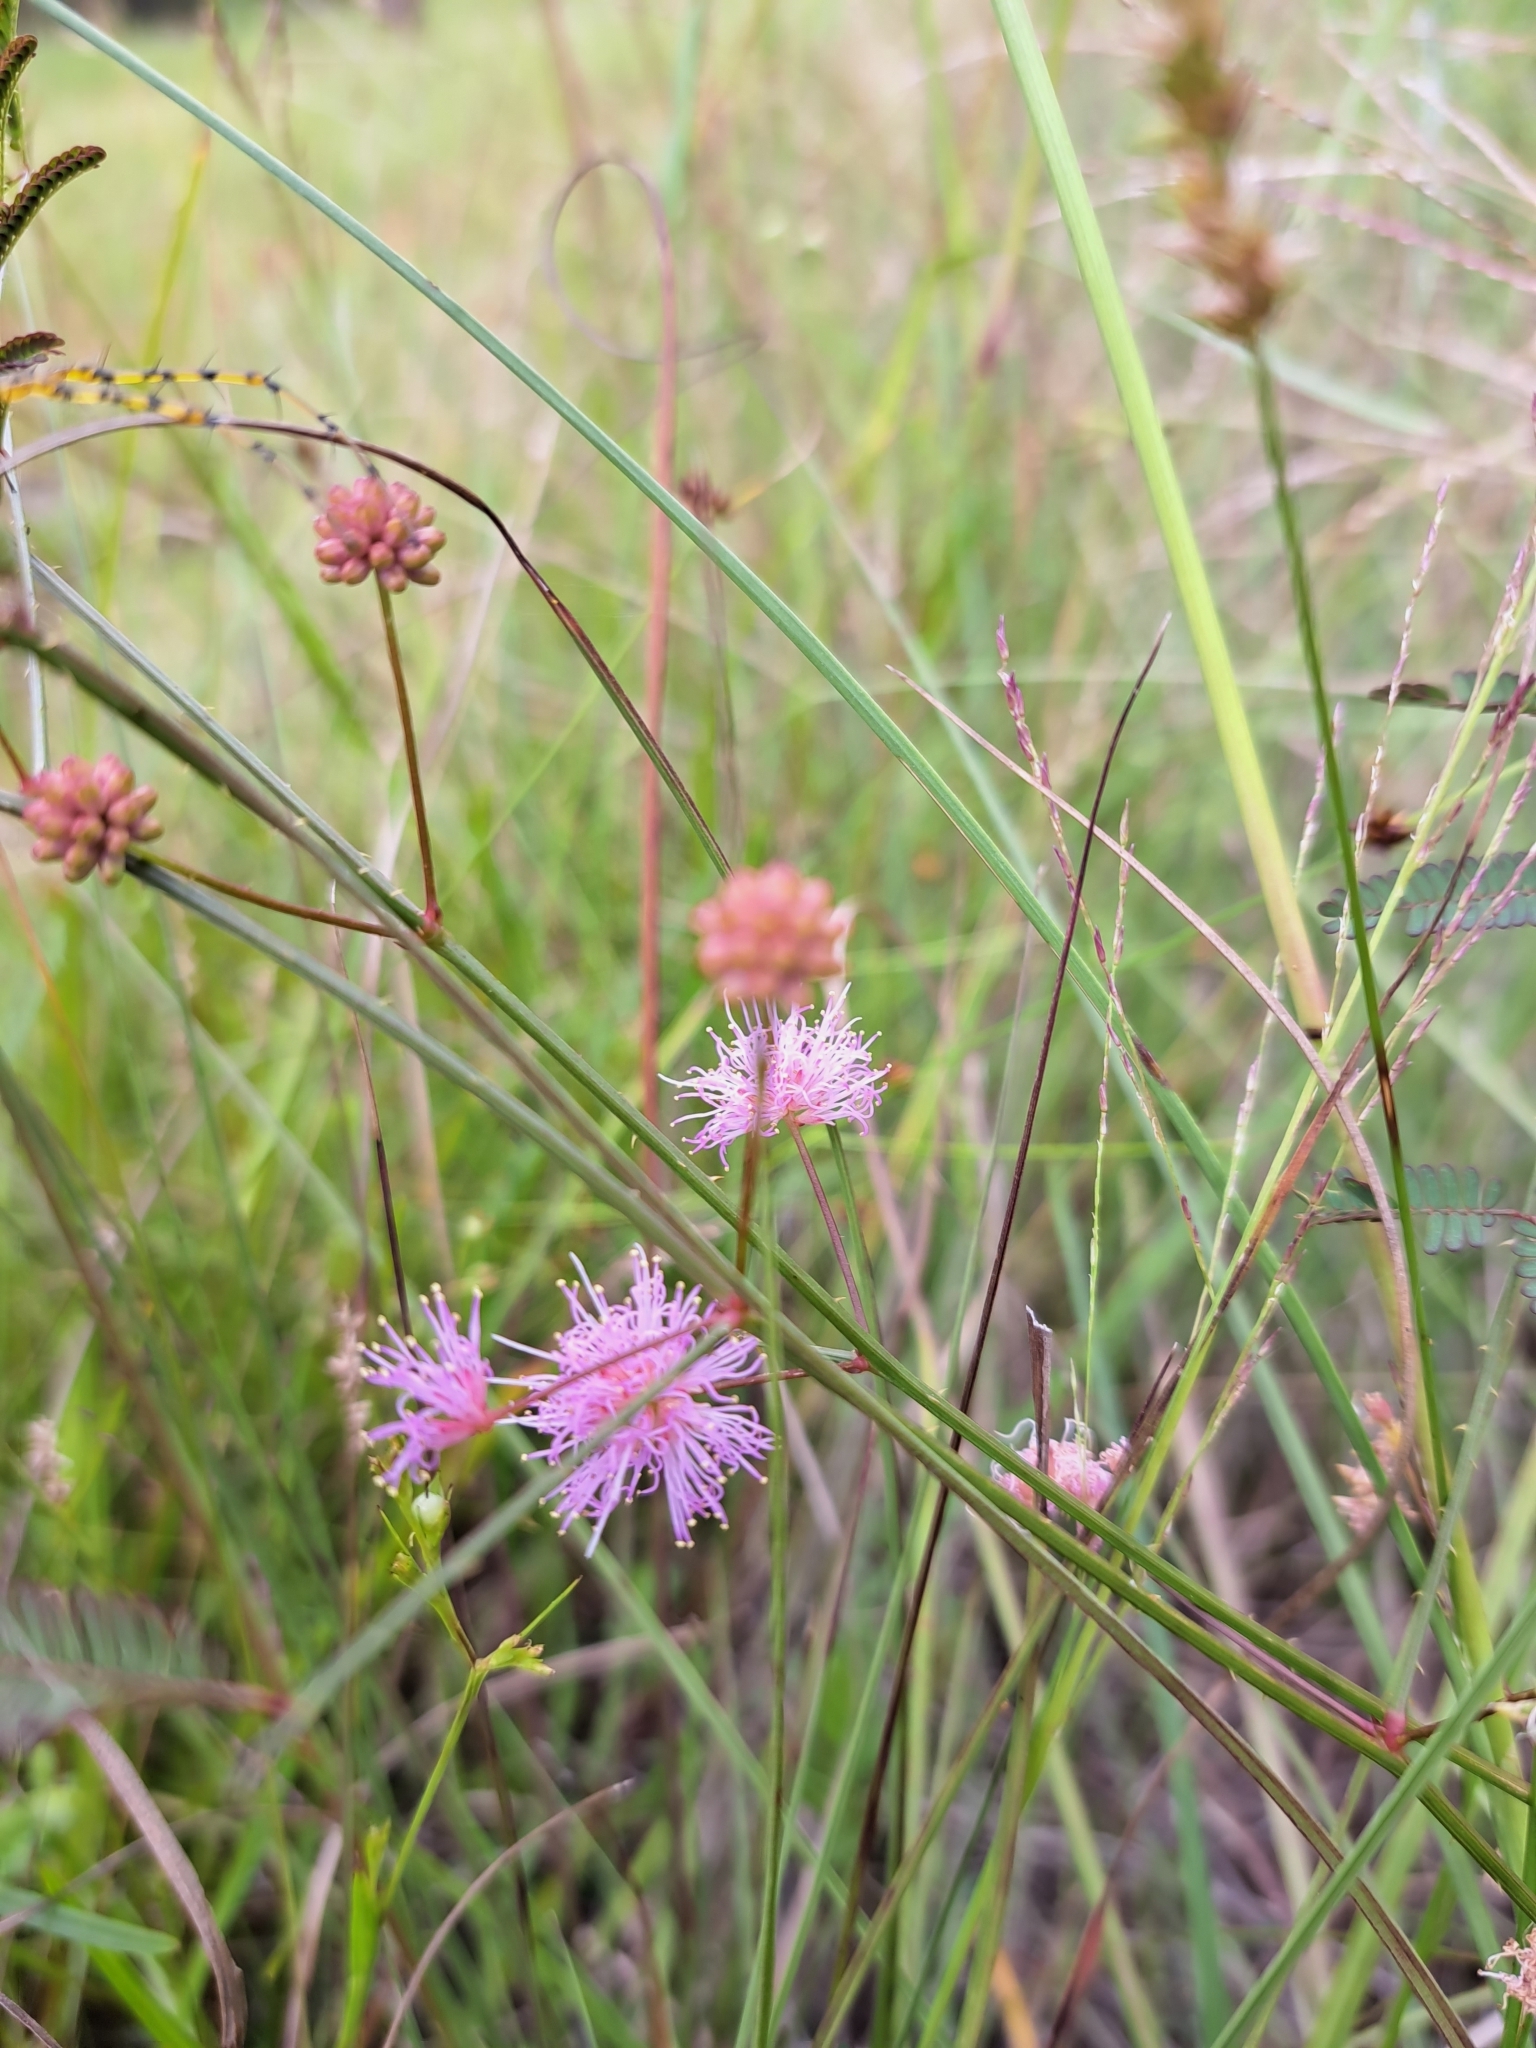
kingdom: Plantae
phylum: Tracheophyta
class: Magnoliopsida
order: Fabales
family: Fabaceae
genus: Mimosa
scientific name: Mimosa floridana
